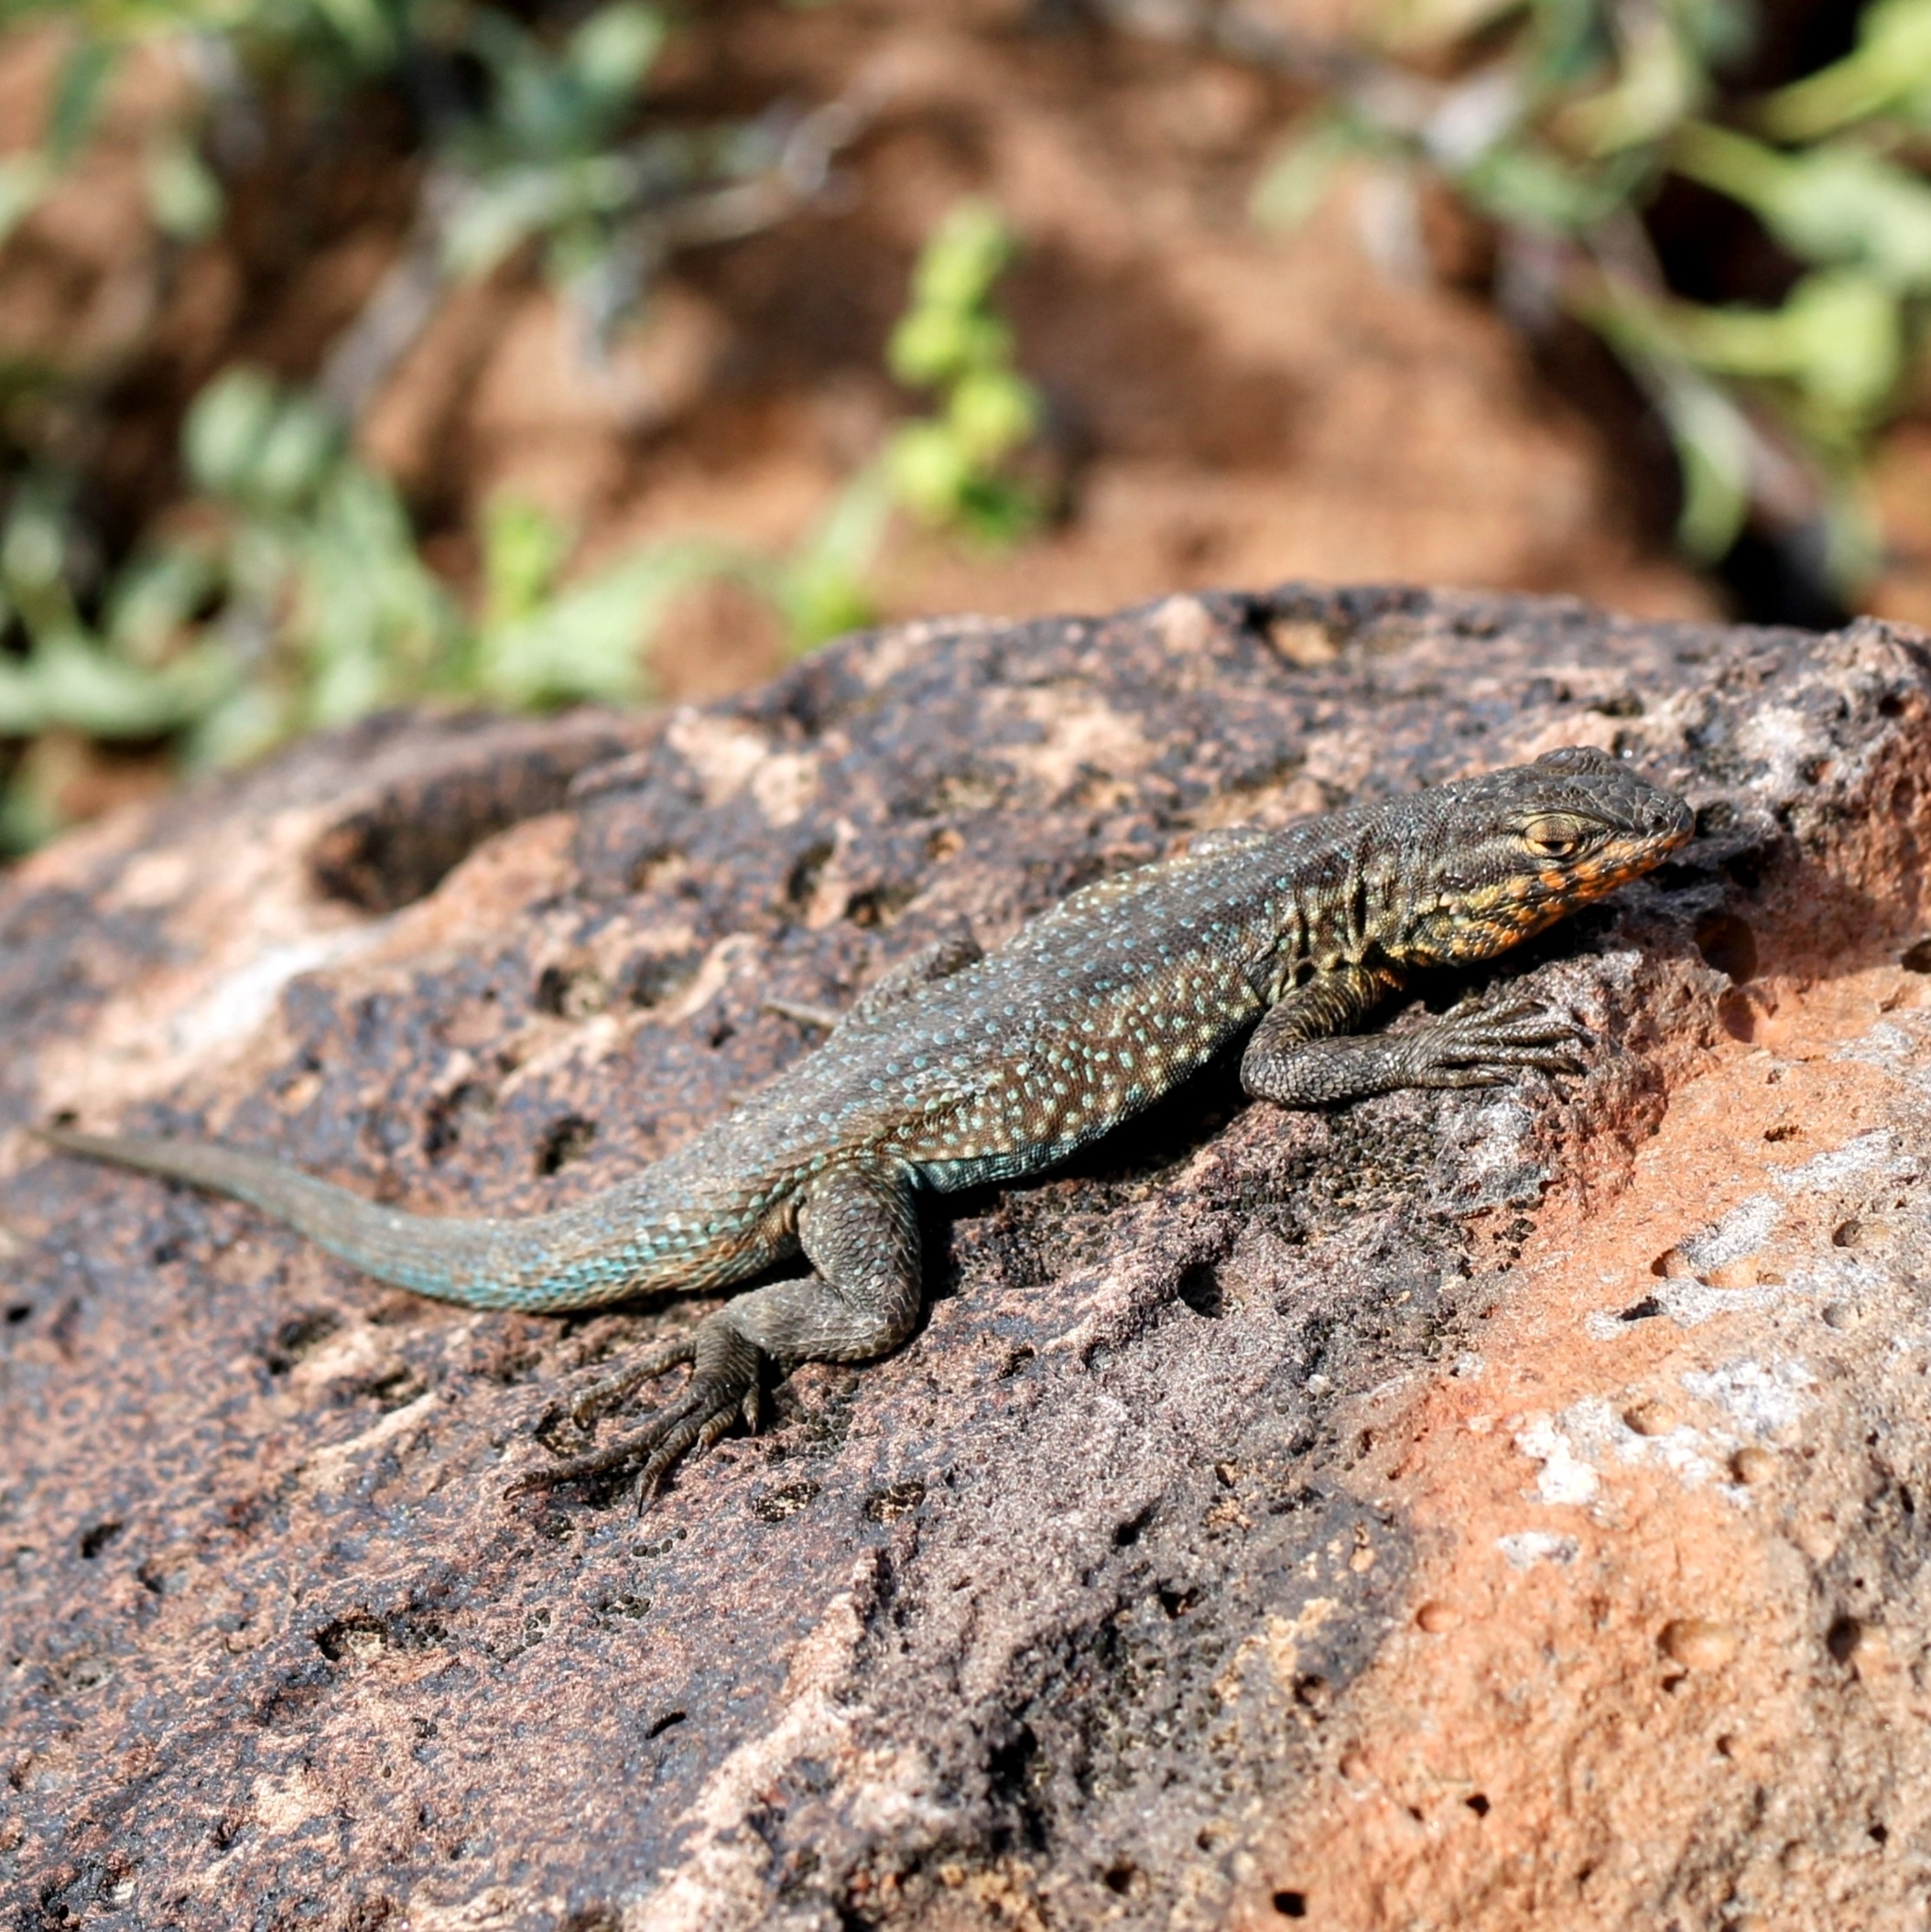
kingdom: Animalia
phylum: Chordata
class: Squamata
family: Phrynosomatidae
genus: Uta
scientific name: Uta stansburiana
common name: Side-blotched lizard
